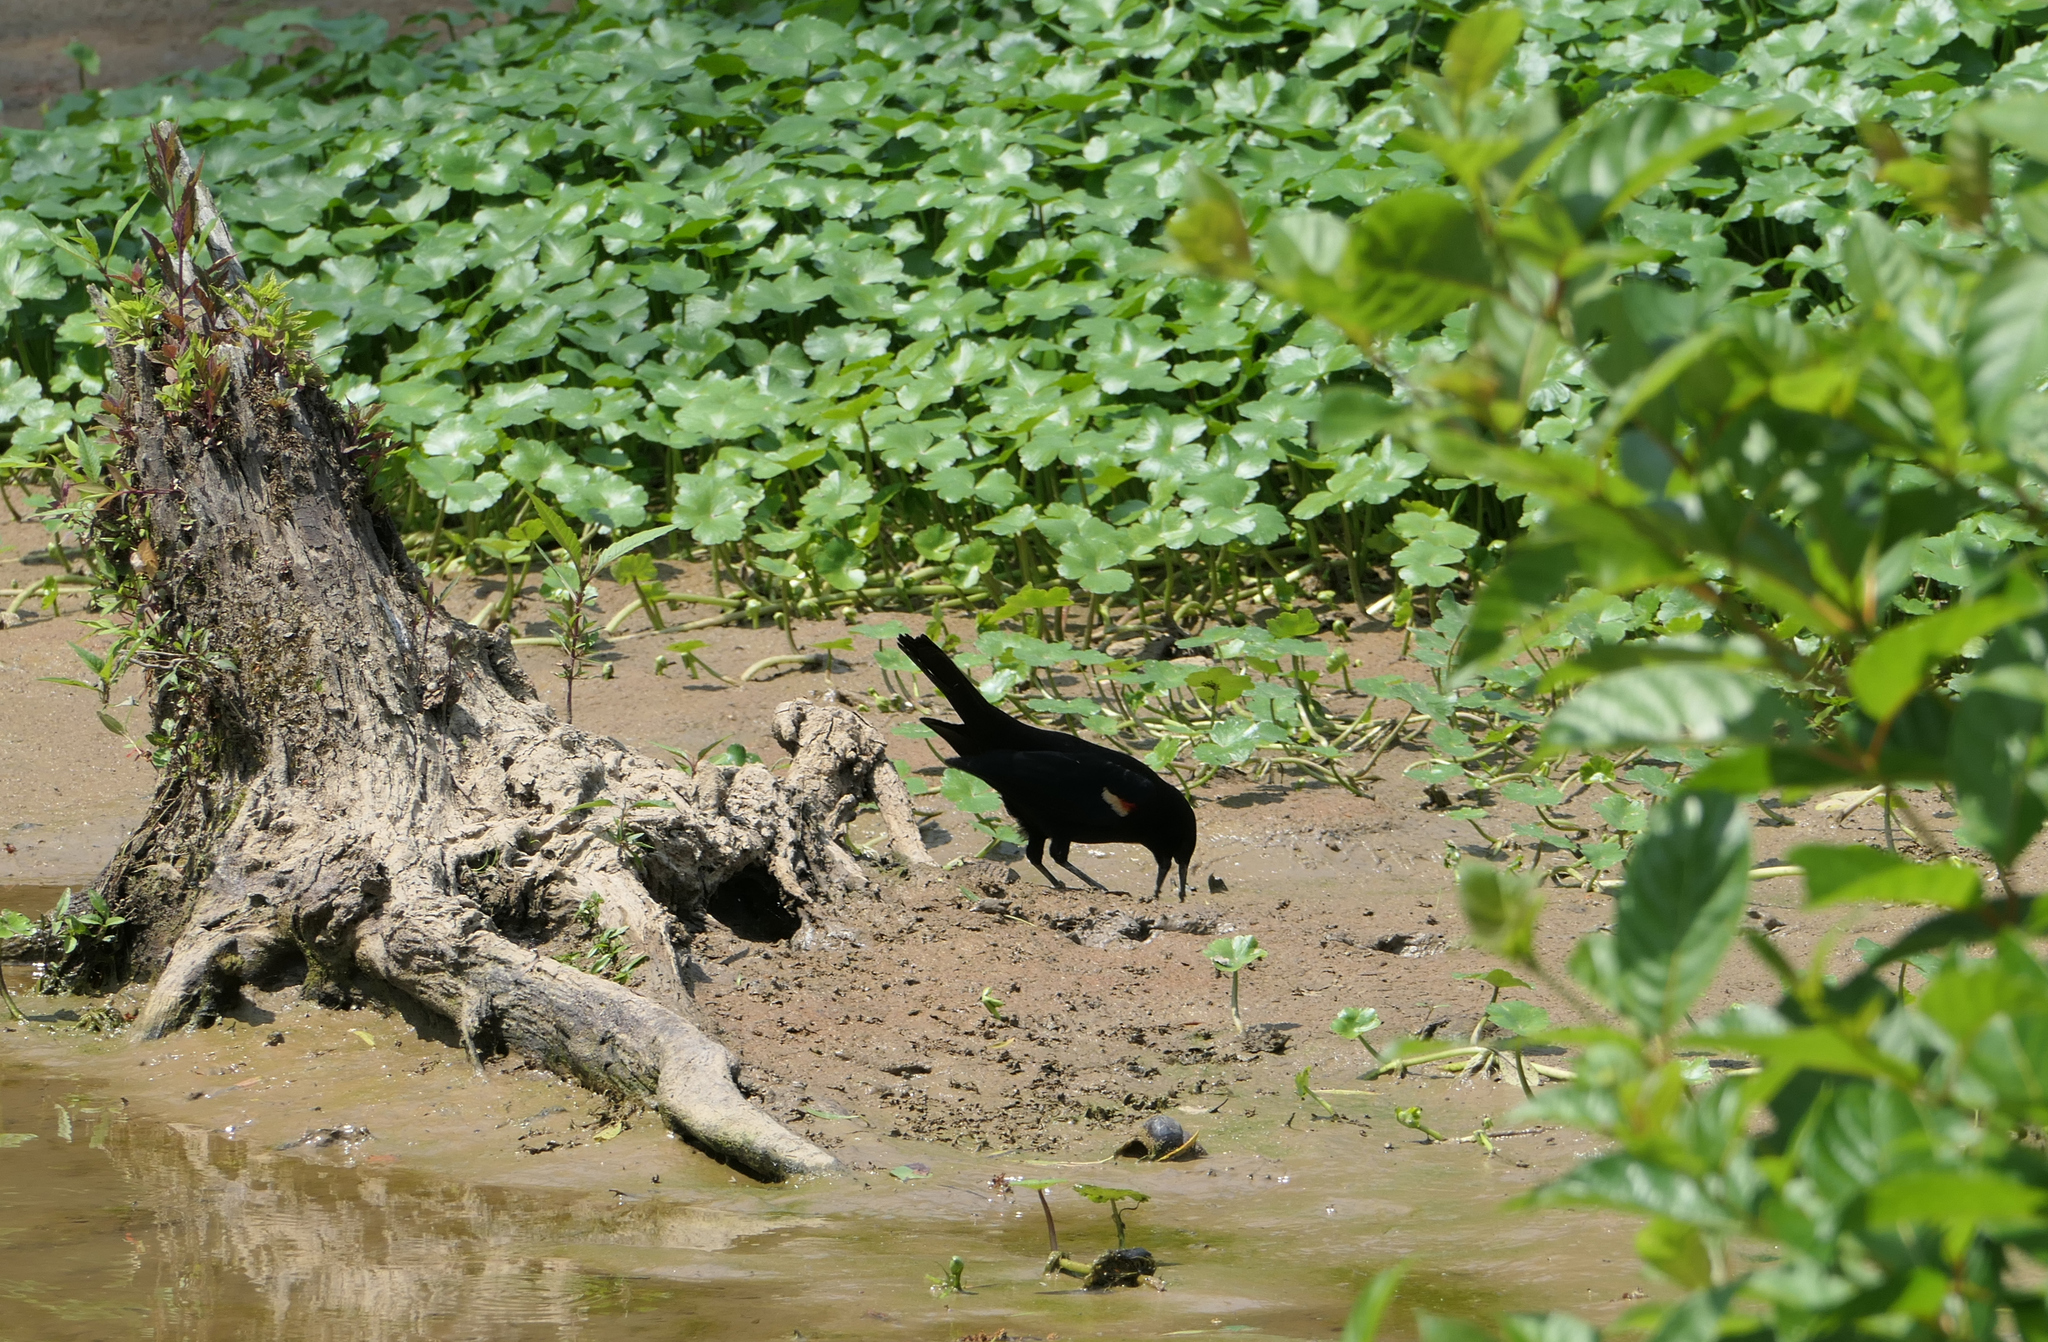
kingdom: Animalia
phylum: Chordata
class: Aves
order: Passeriformes
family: Icteridae
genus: Agelaius
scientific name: Agelaius phoeniceus
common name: Red-winged blackbird
